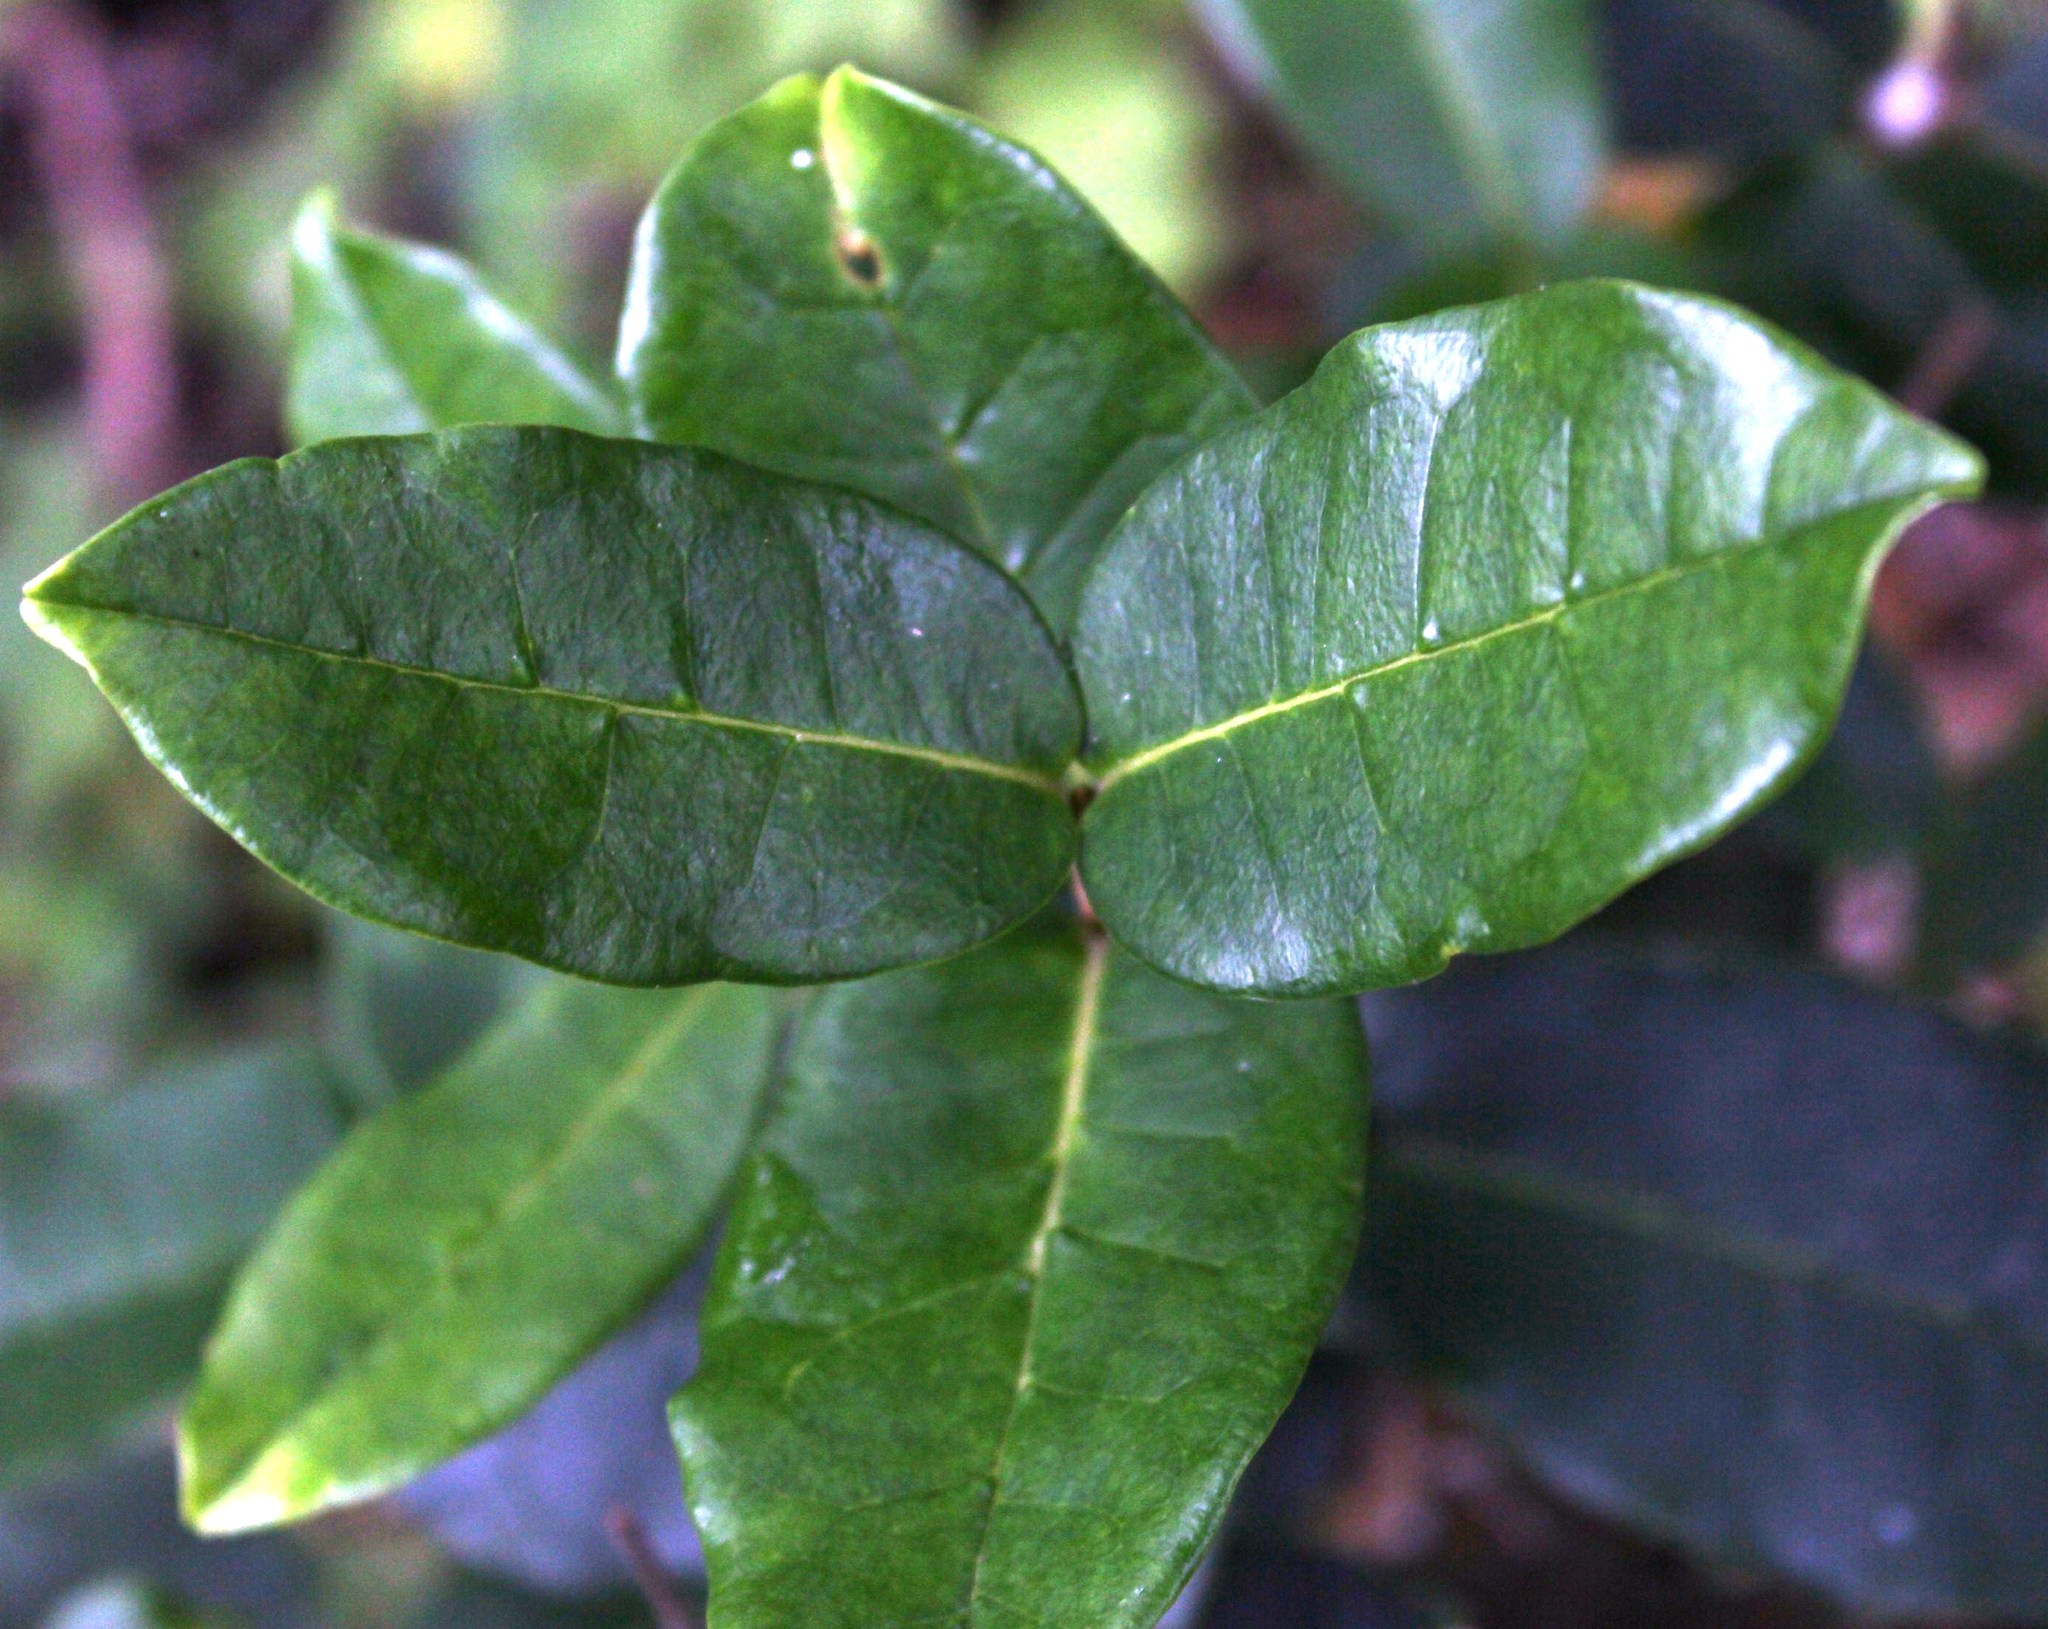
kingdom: Plantae
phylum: Tracheophyta
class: Magnoliopsida
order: Lamiales
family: Oleaceae
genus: Noronhia
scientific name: Noronhia foveolata
